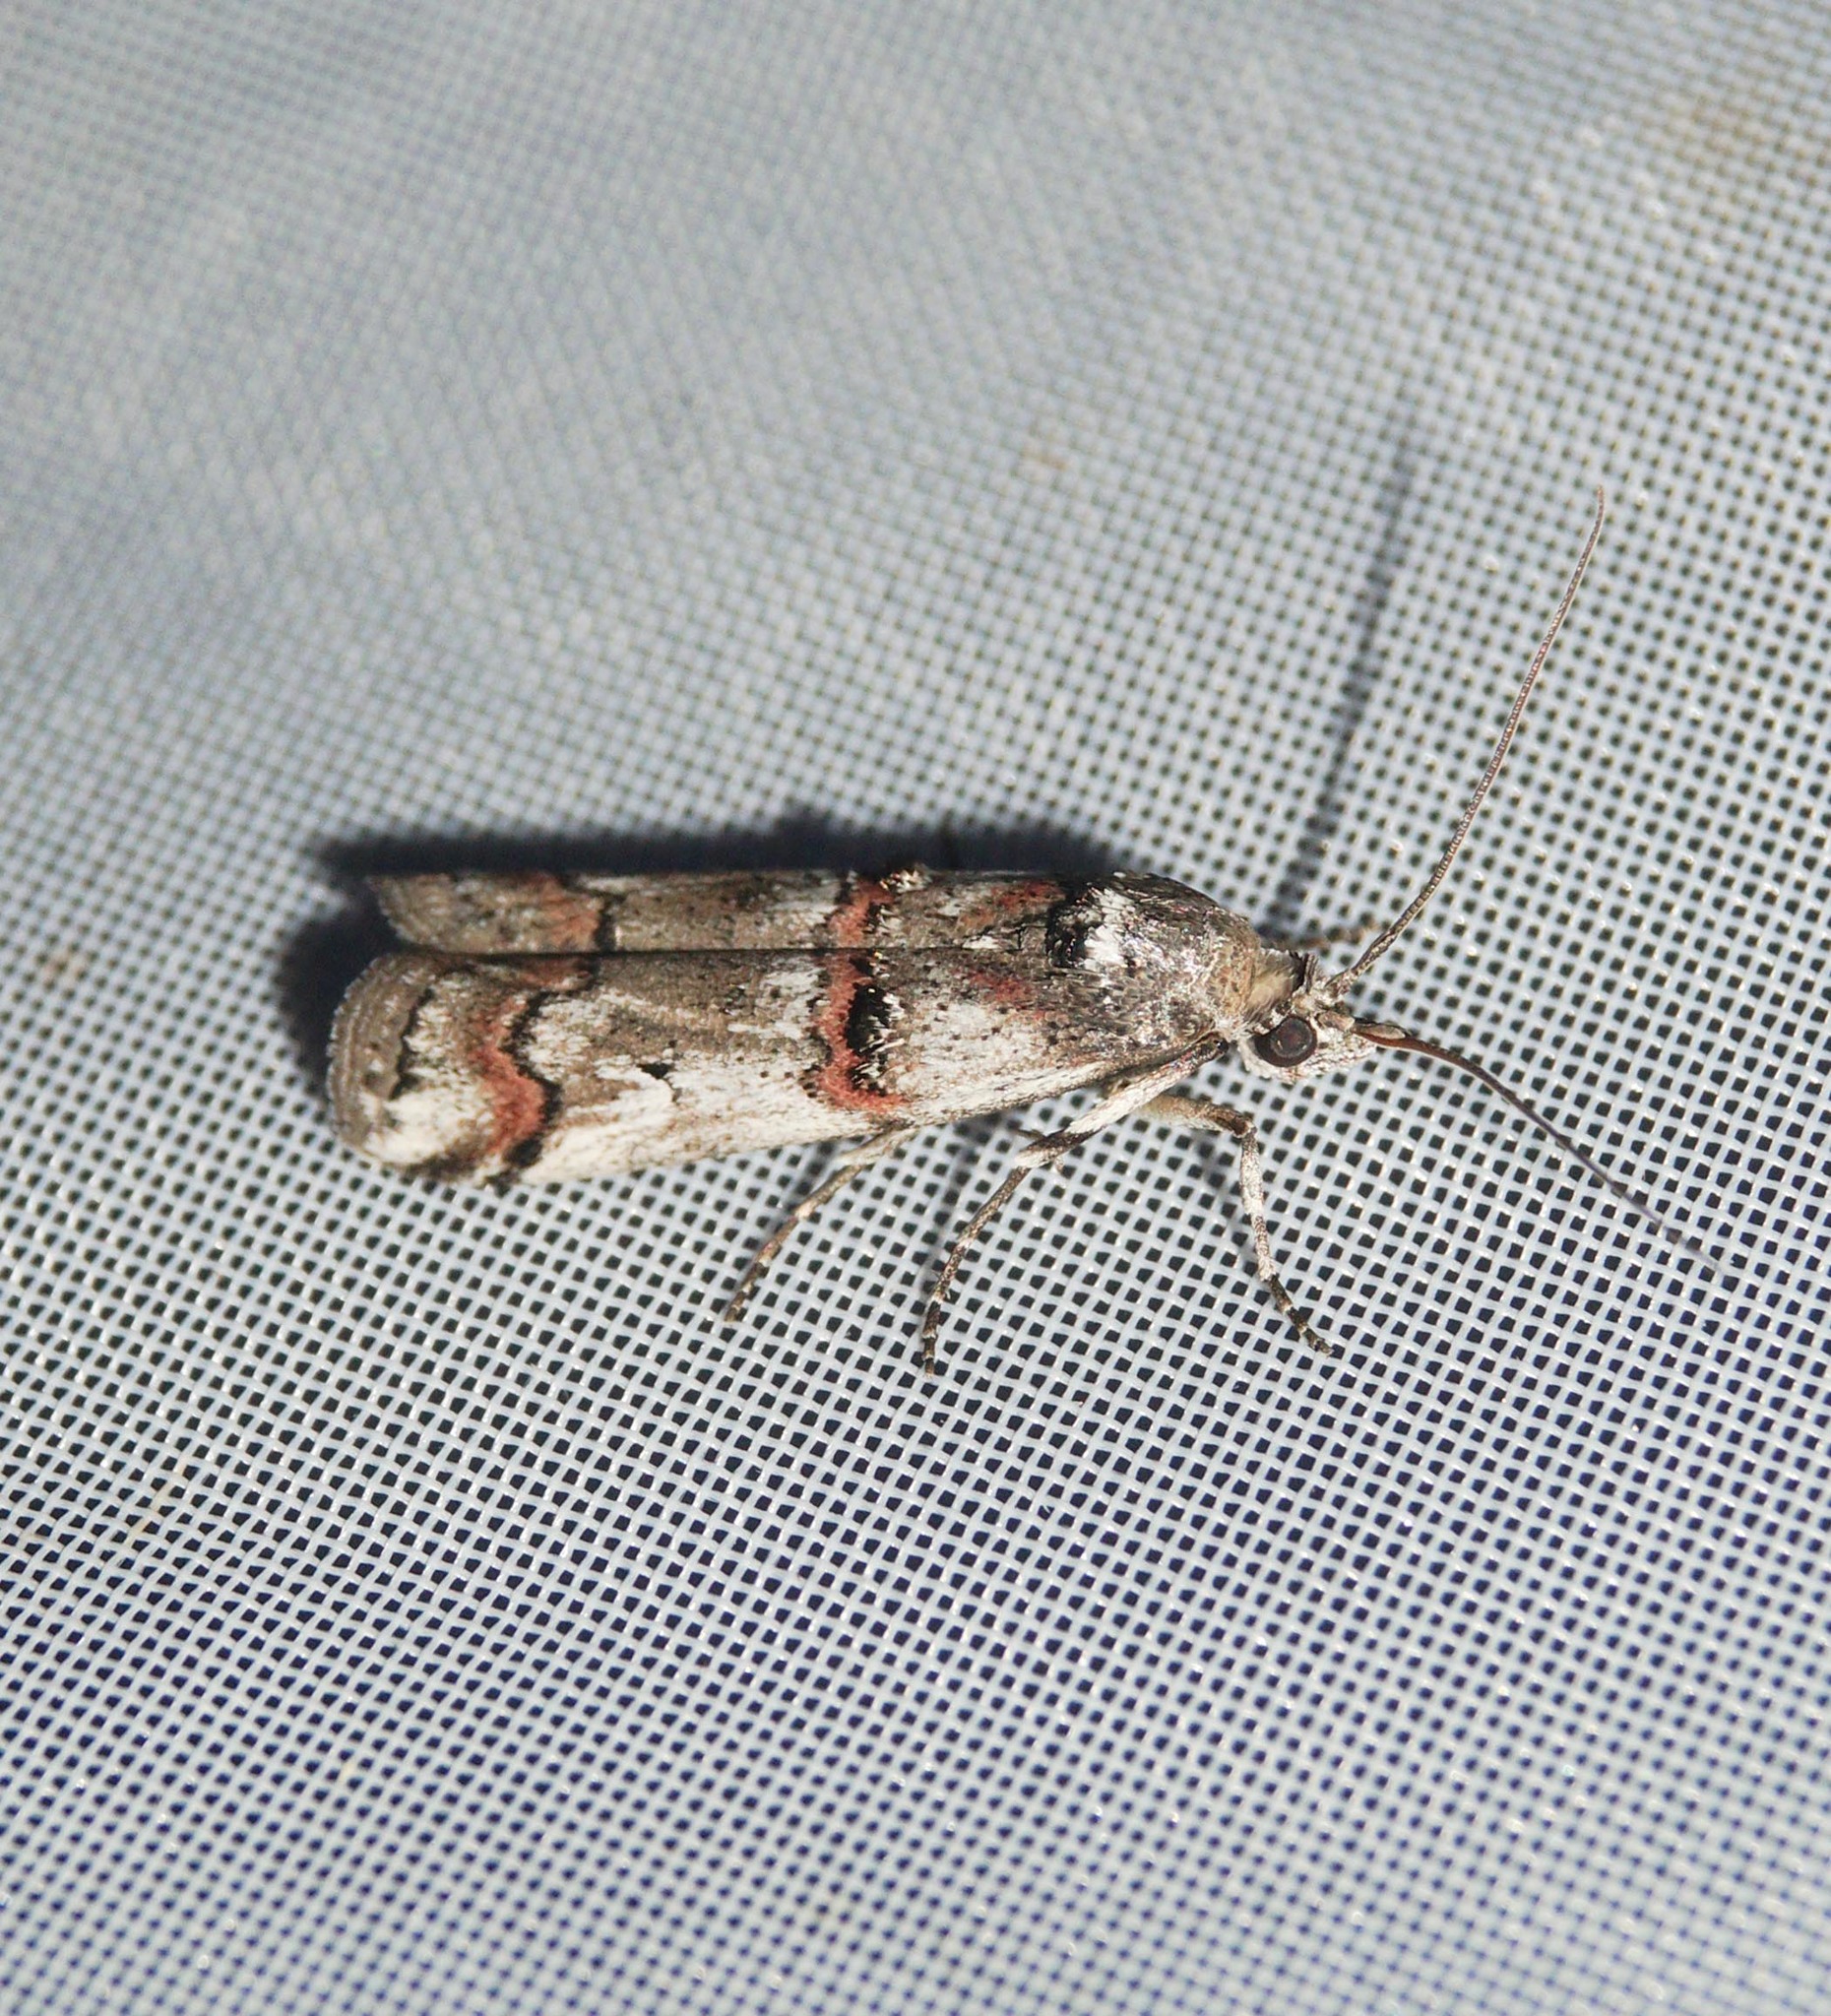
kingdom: Animalia
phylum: Arthropoda
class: Insecta
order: Lepidoptera
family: Pyralidae
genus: Pempelia
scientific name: Pempelia palumbella
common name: Heather knot-horn
